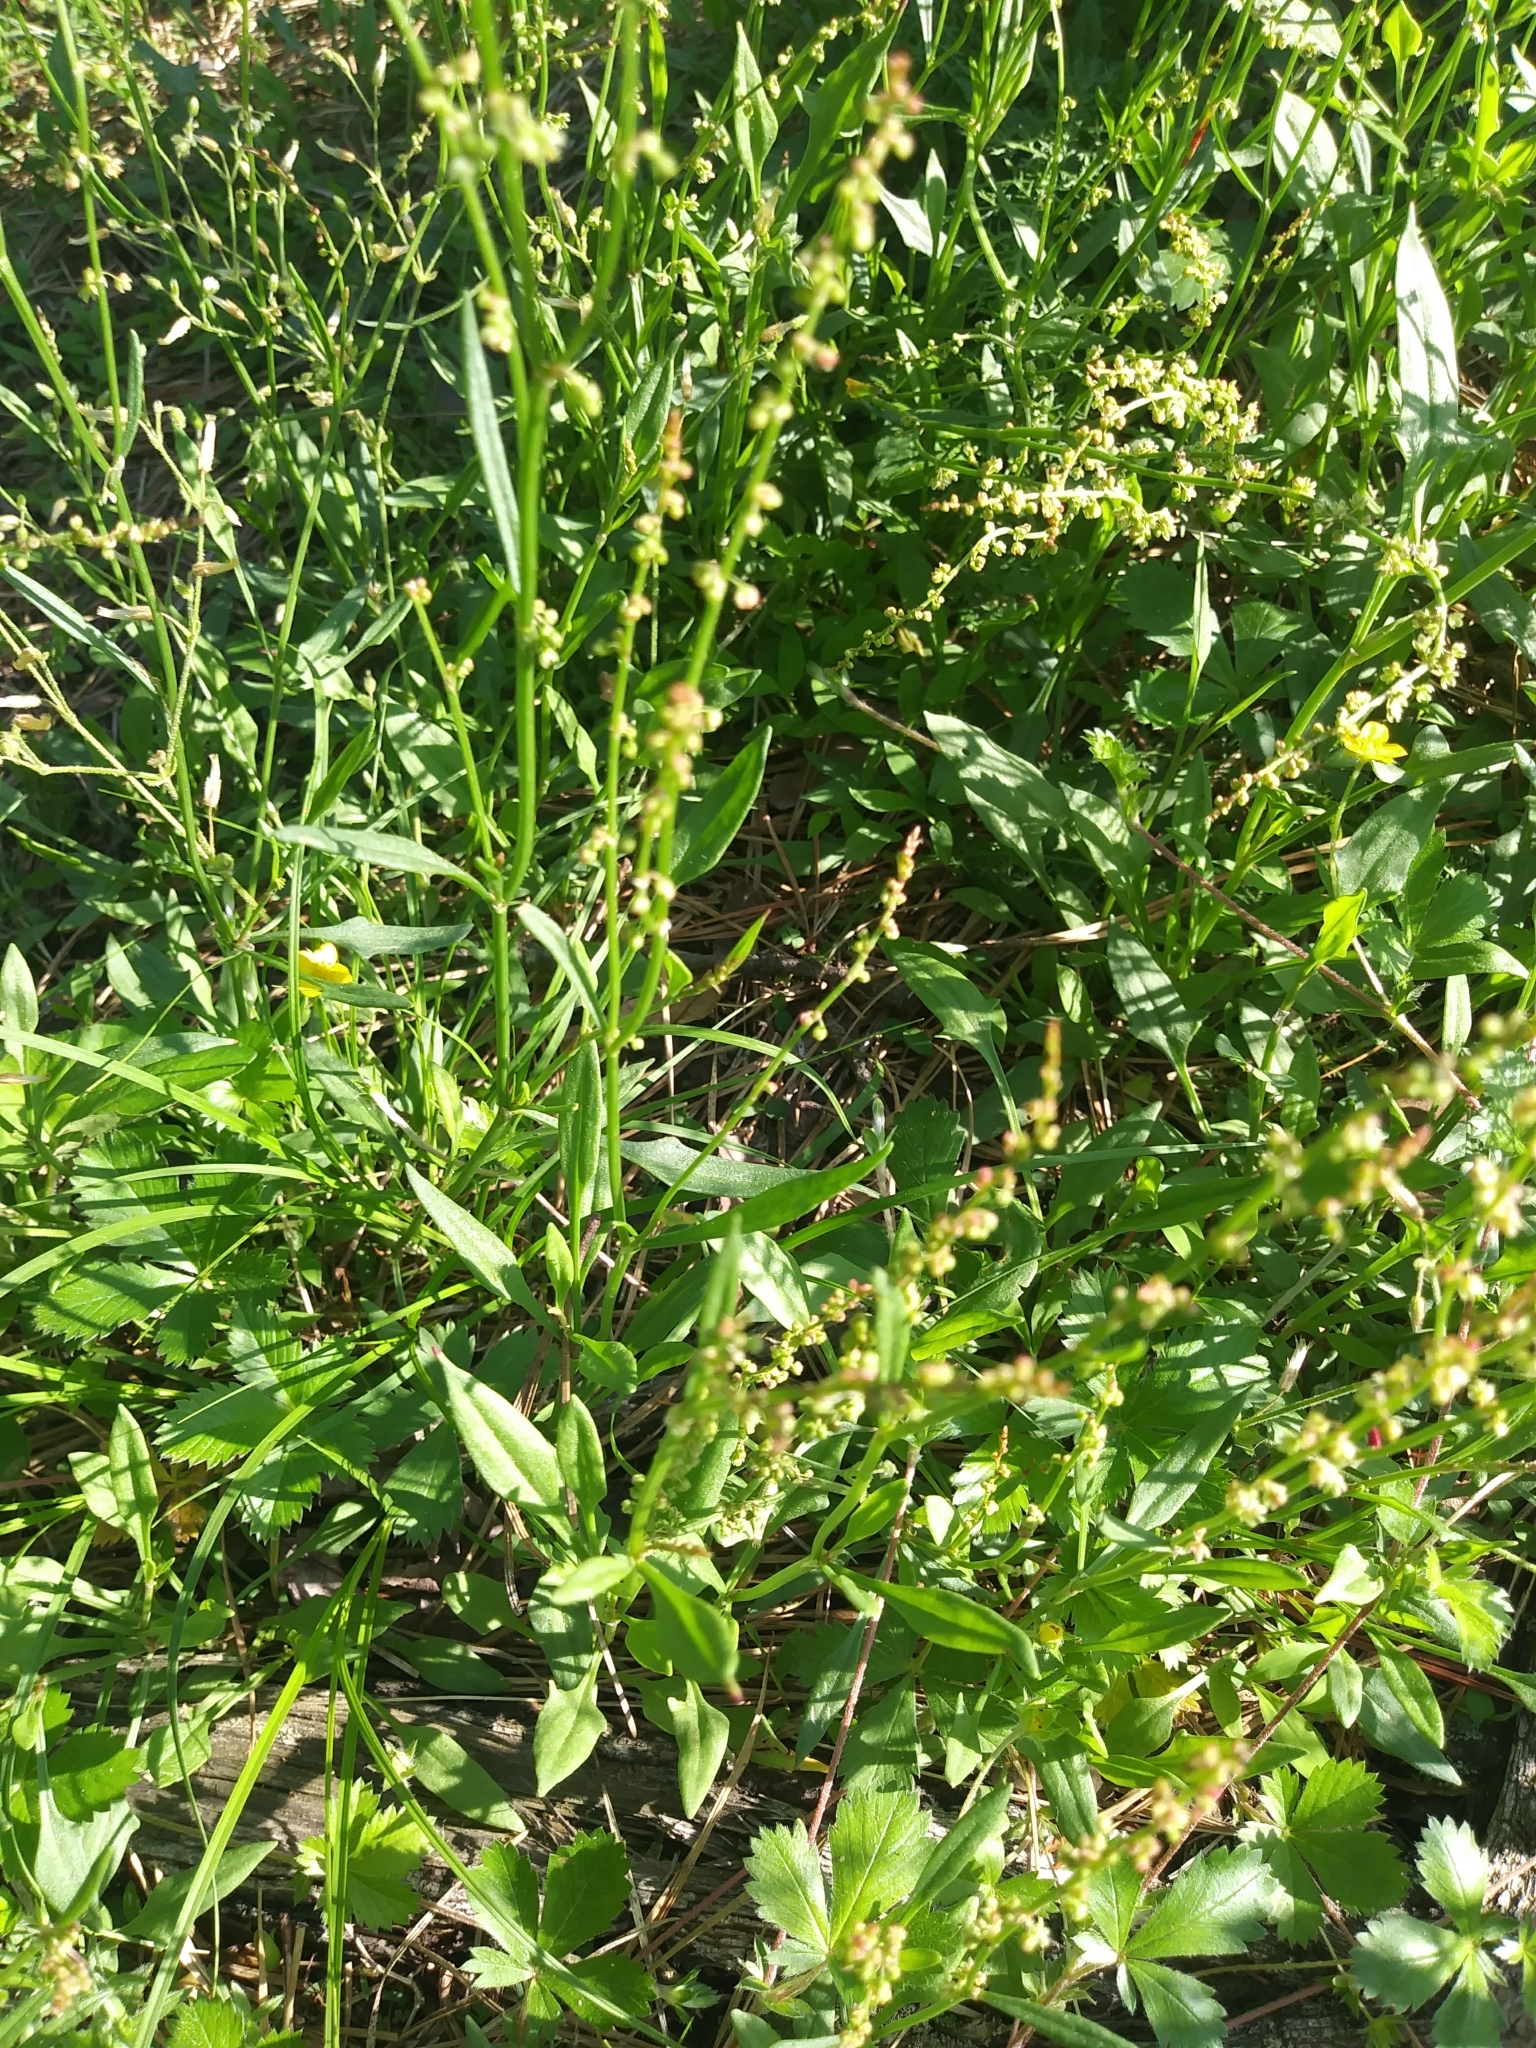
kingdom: Plantae
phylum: Tracheophyta
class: Magnoliopsida
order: Caryophyllales
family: Polygonaceae
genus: Rumex
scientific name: Rumex acetosella
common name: Common sheep sorrel
